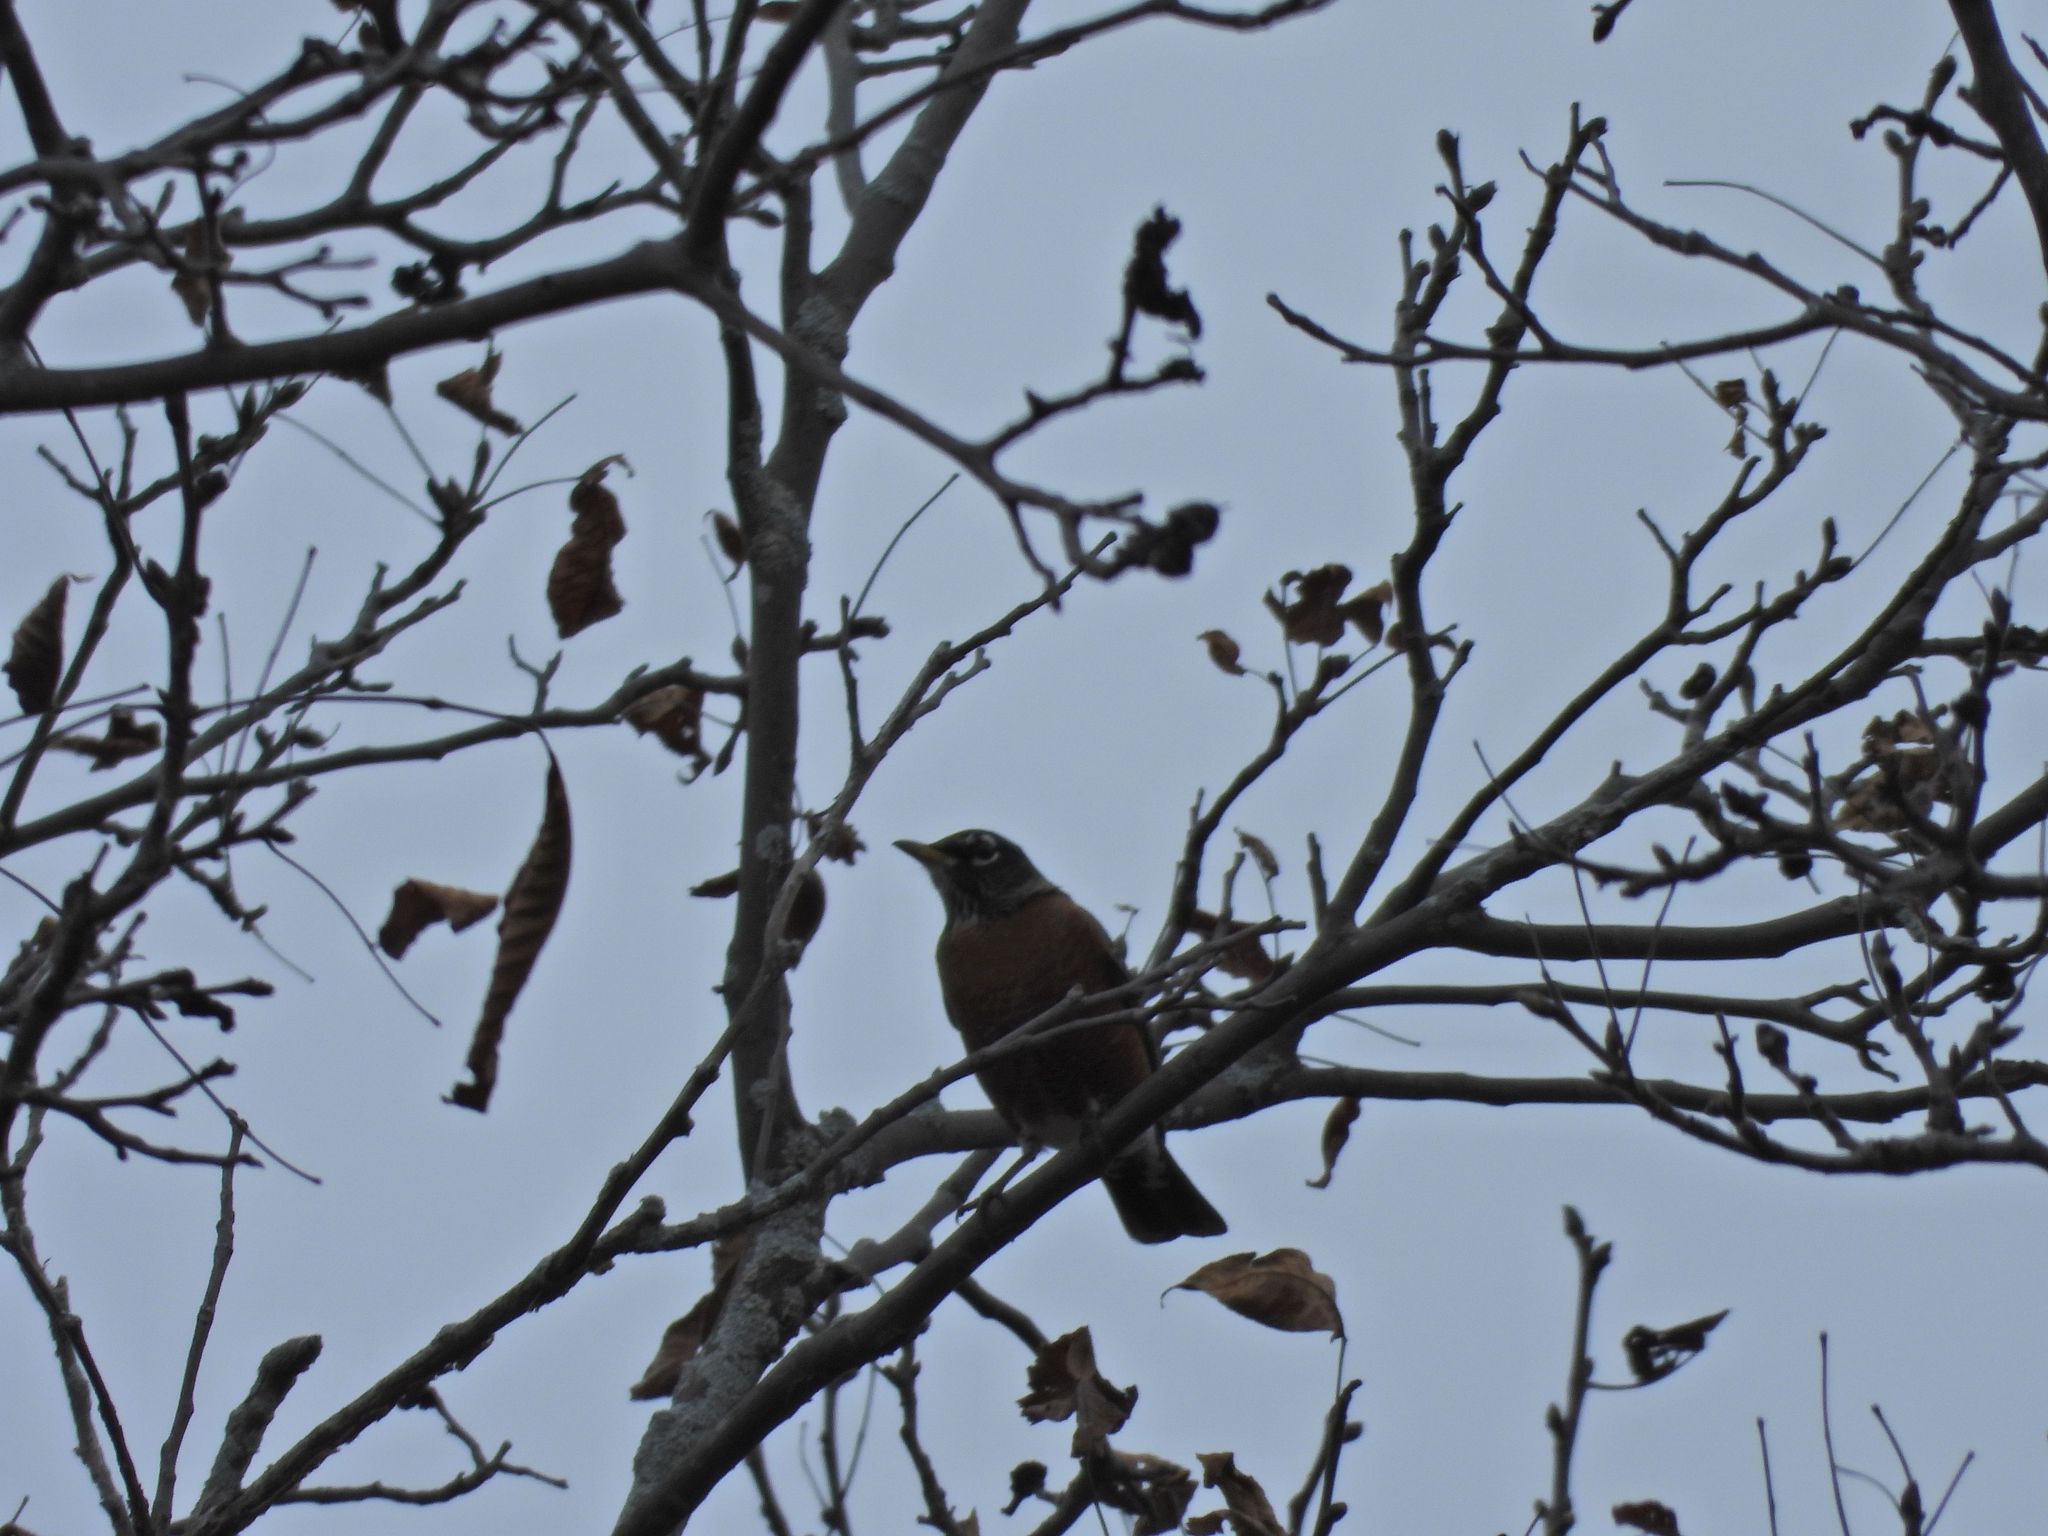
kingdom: Animalia
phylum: Chordata
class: Aves
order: Passeriformes
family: Turdidae
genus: Turdus
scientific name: Turdus migratorius
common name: American robin
